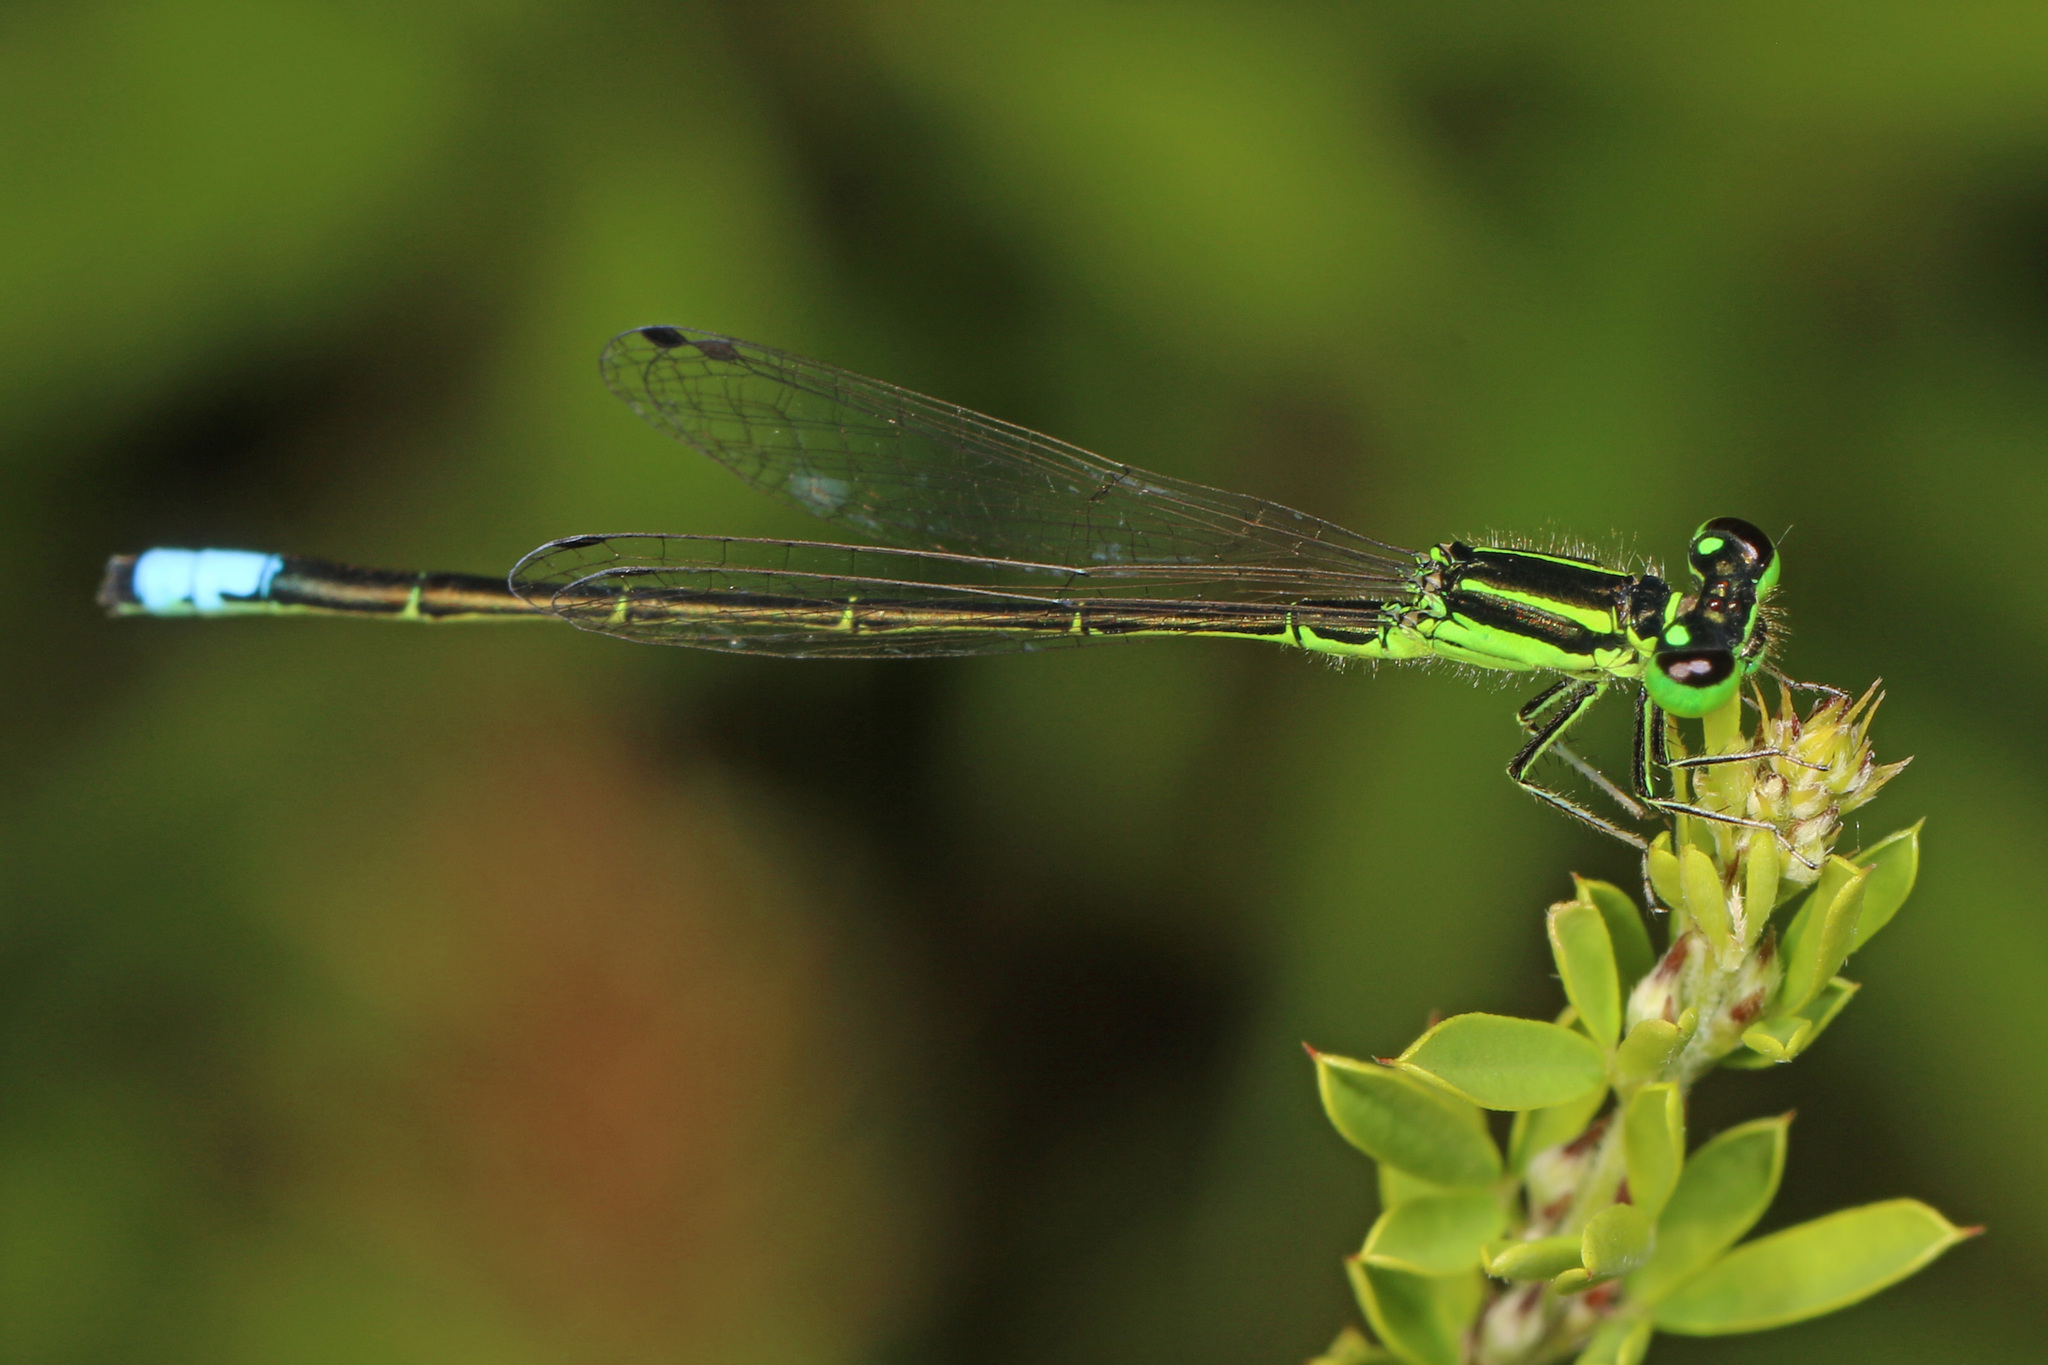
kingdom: Animalia
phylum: Arthropoda
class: Insecta
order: Odonata
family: Coenagrionidae
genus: Ischnura
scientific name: Ischnura verticalis
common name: Eastern forktail
